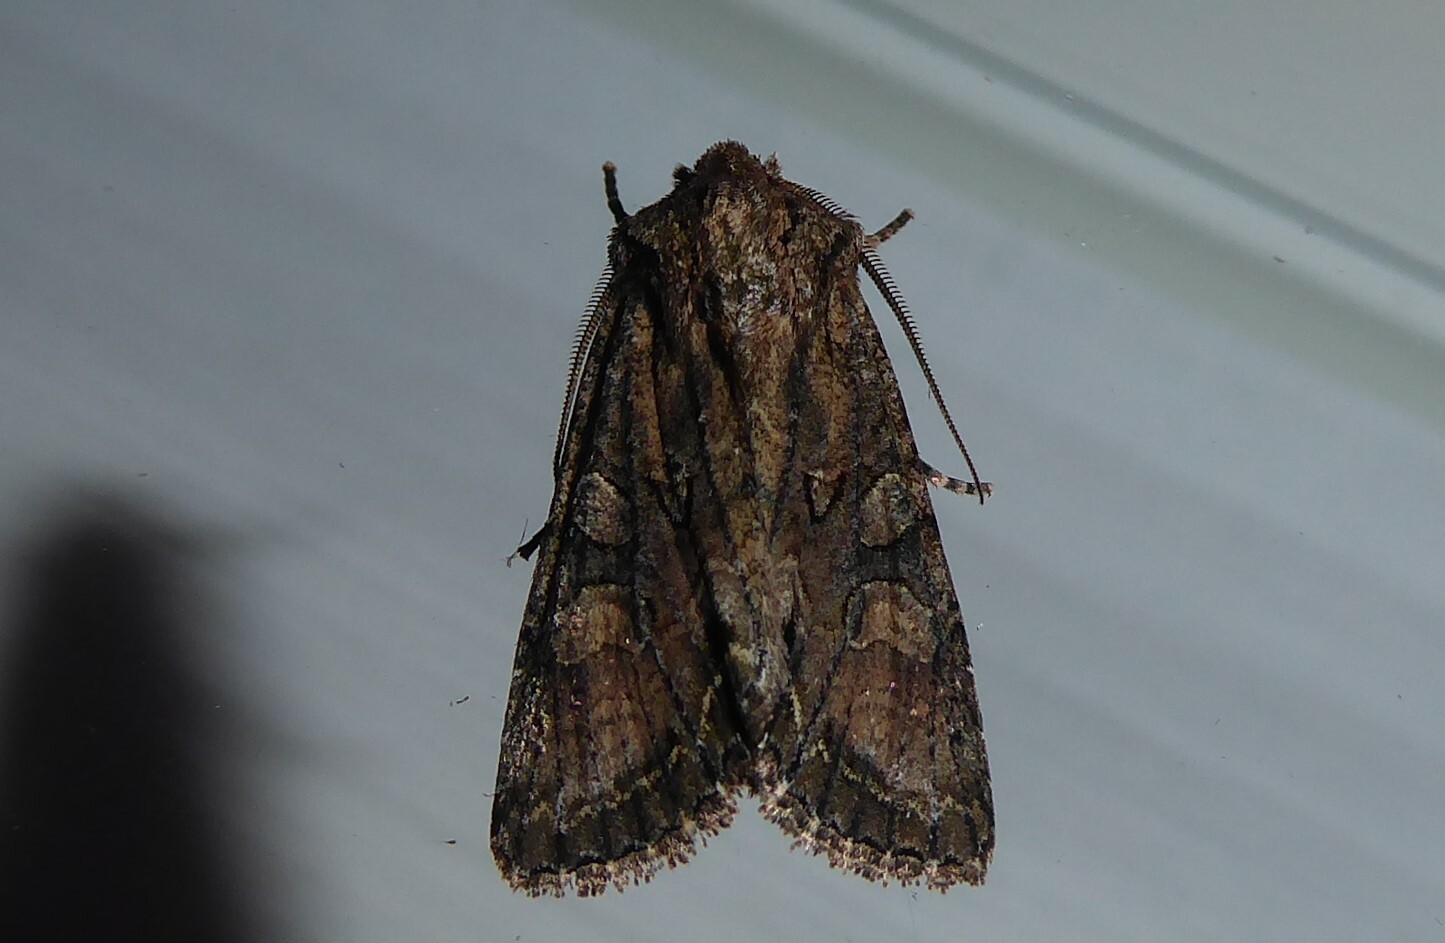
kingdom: Animalia
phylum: Arthropoda
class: Insecta
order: Lepidoptera
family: Noctuidae
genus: Ichneutica
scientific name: Ichneutica mutans
